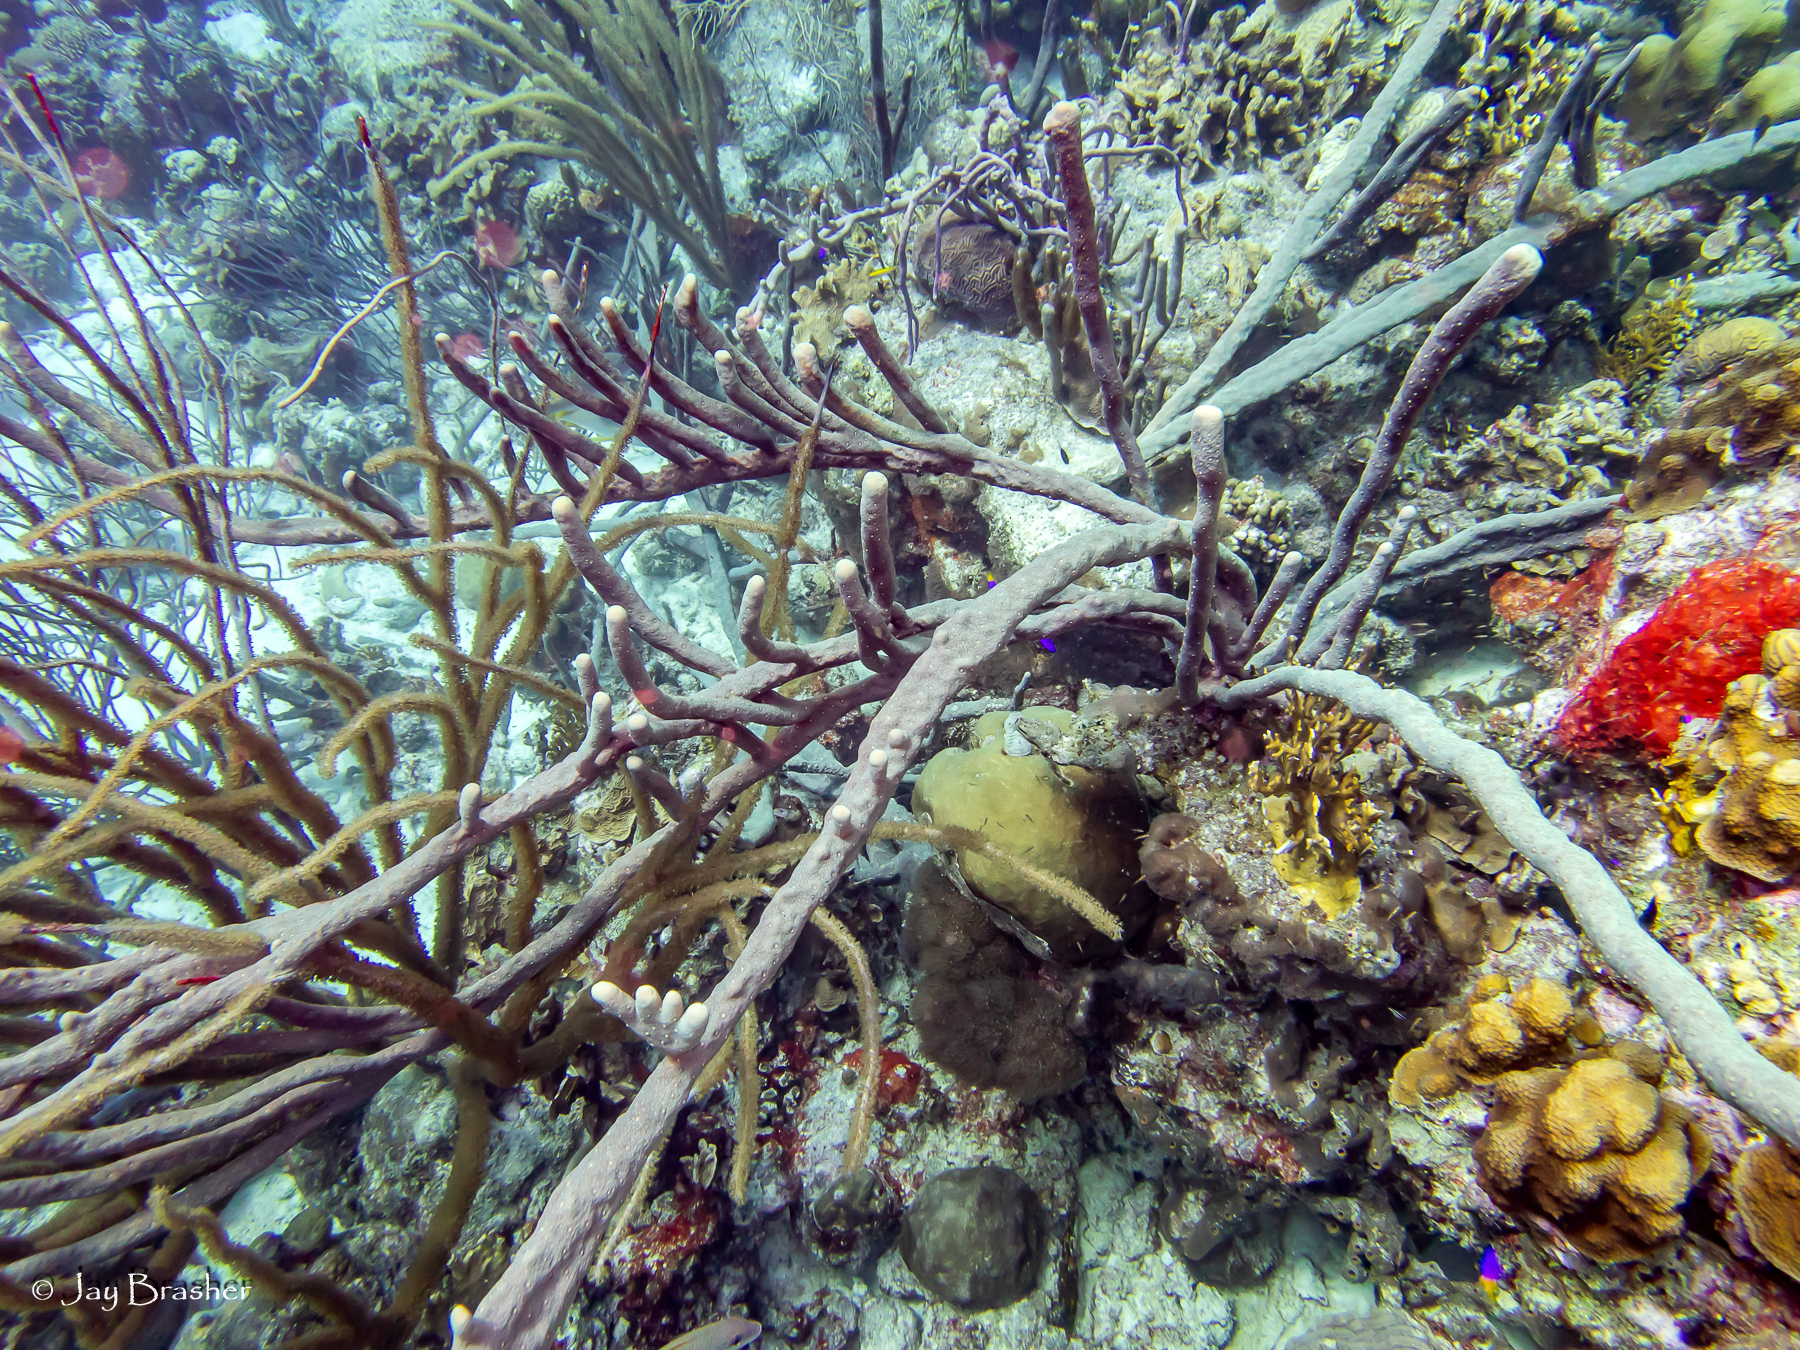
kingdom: Animalia
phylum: Porifera
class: Demospongiae
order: Verongiida
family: Aplysinidae
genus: Aplysina
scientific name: Aplysina cauliformis
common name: Branching candle sponge
